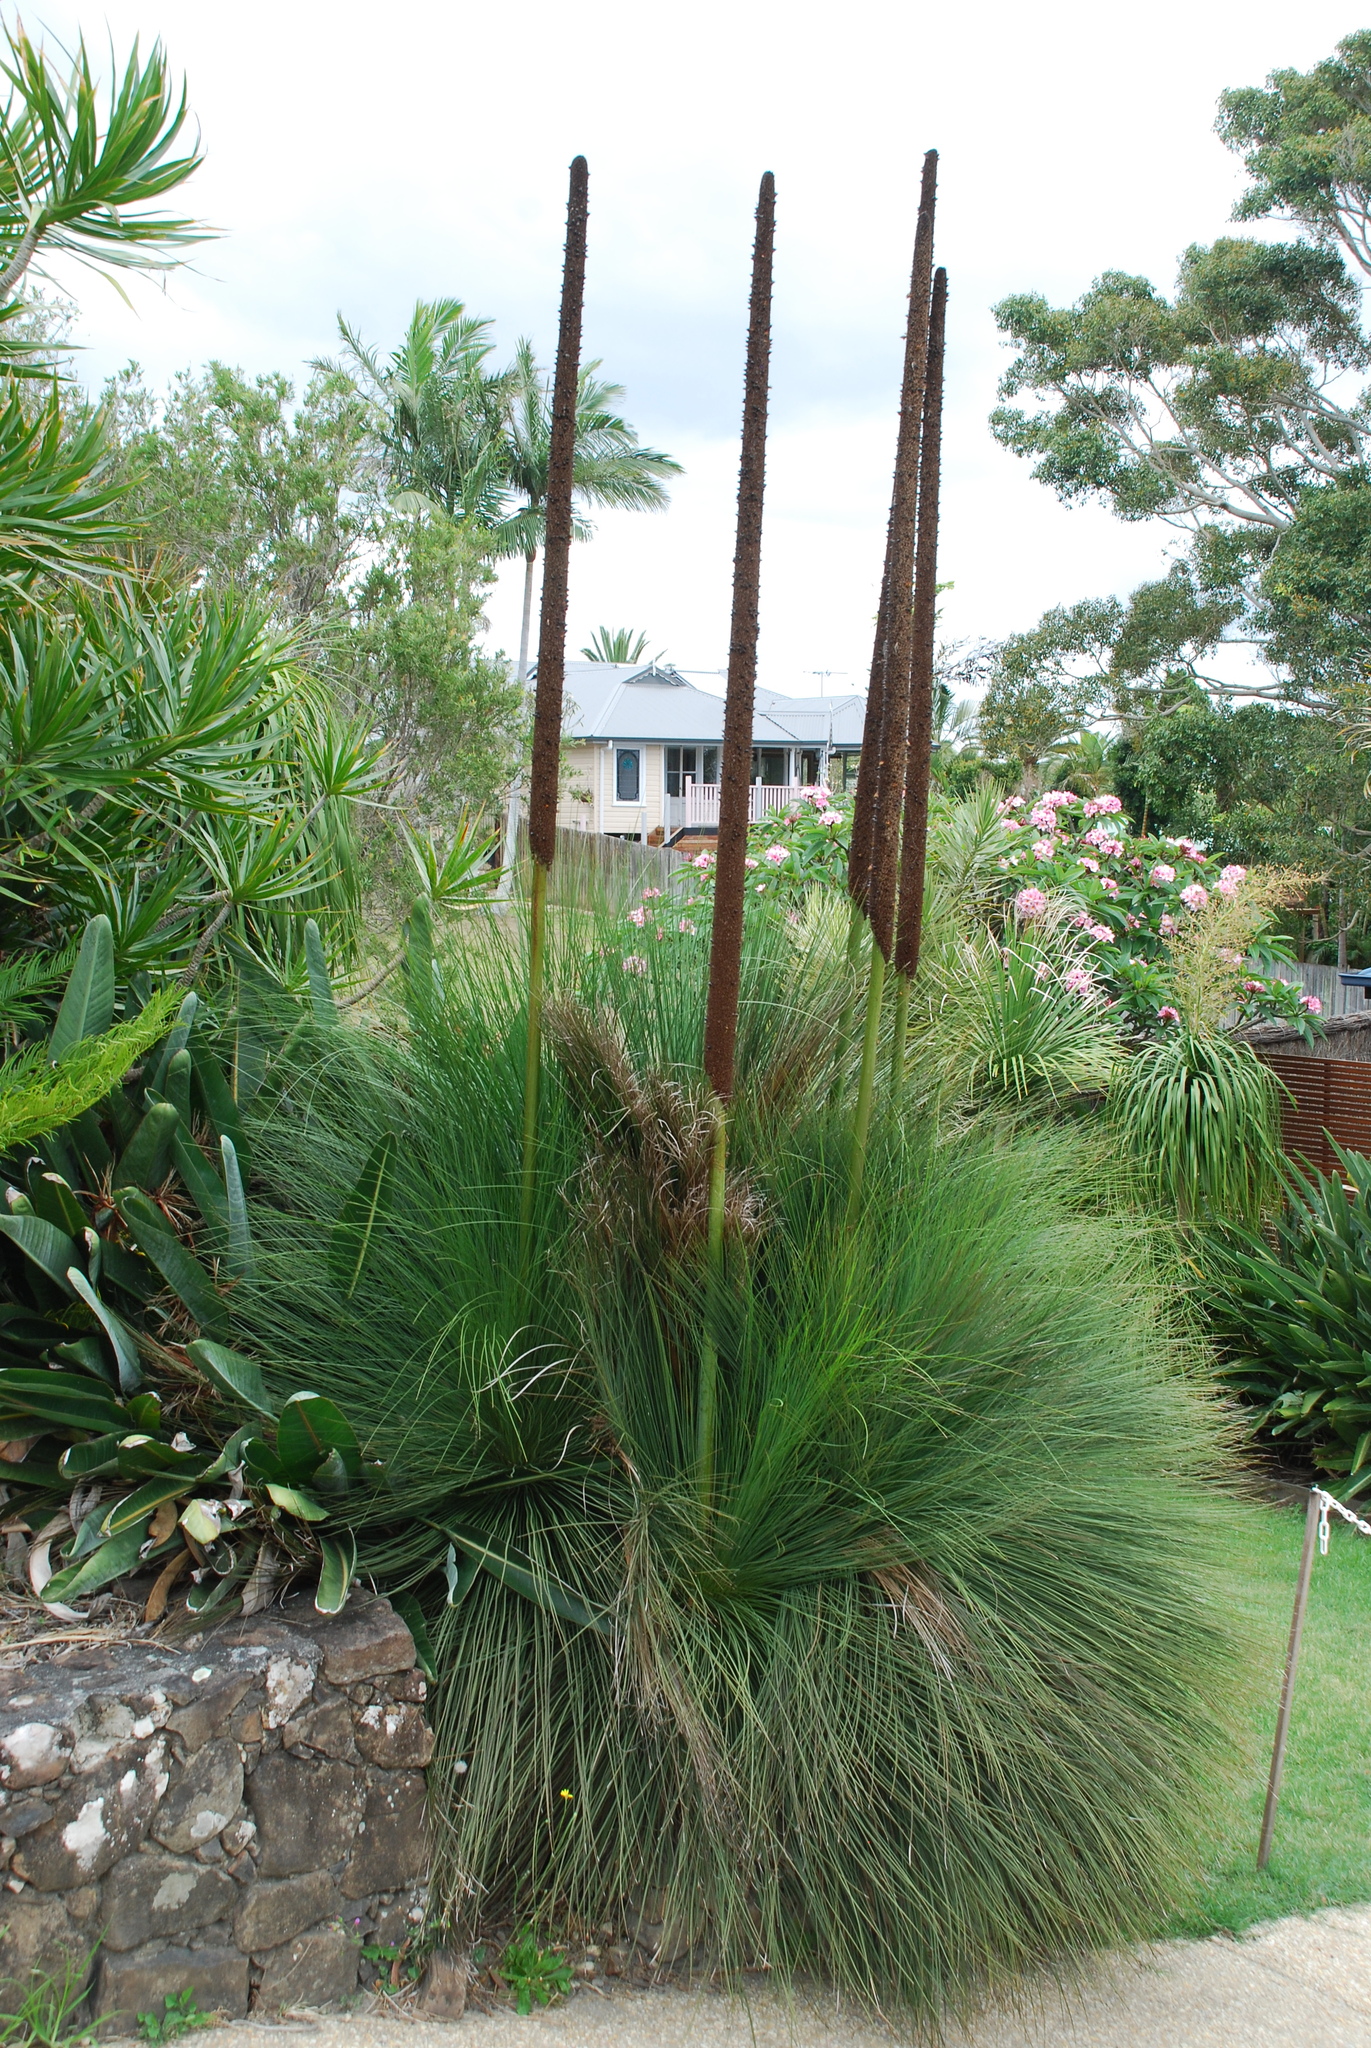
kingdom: Plantae
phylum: Tracheophyta
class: Liliopsida
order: Asparagales
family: Asphodelaceae
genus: Xanthorrhoea
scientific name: Xanthorrhoea glauca
